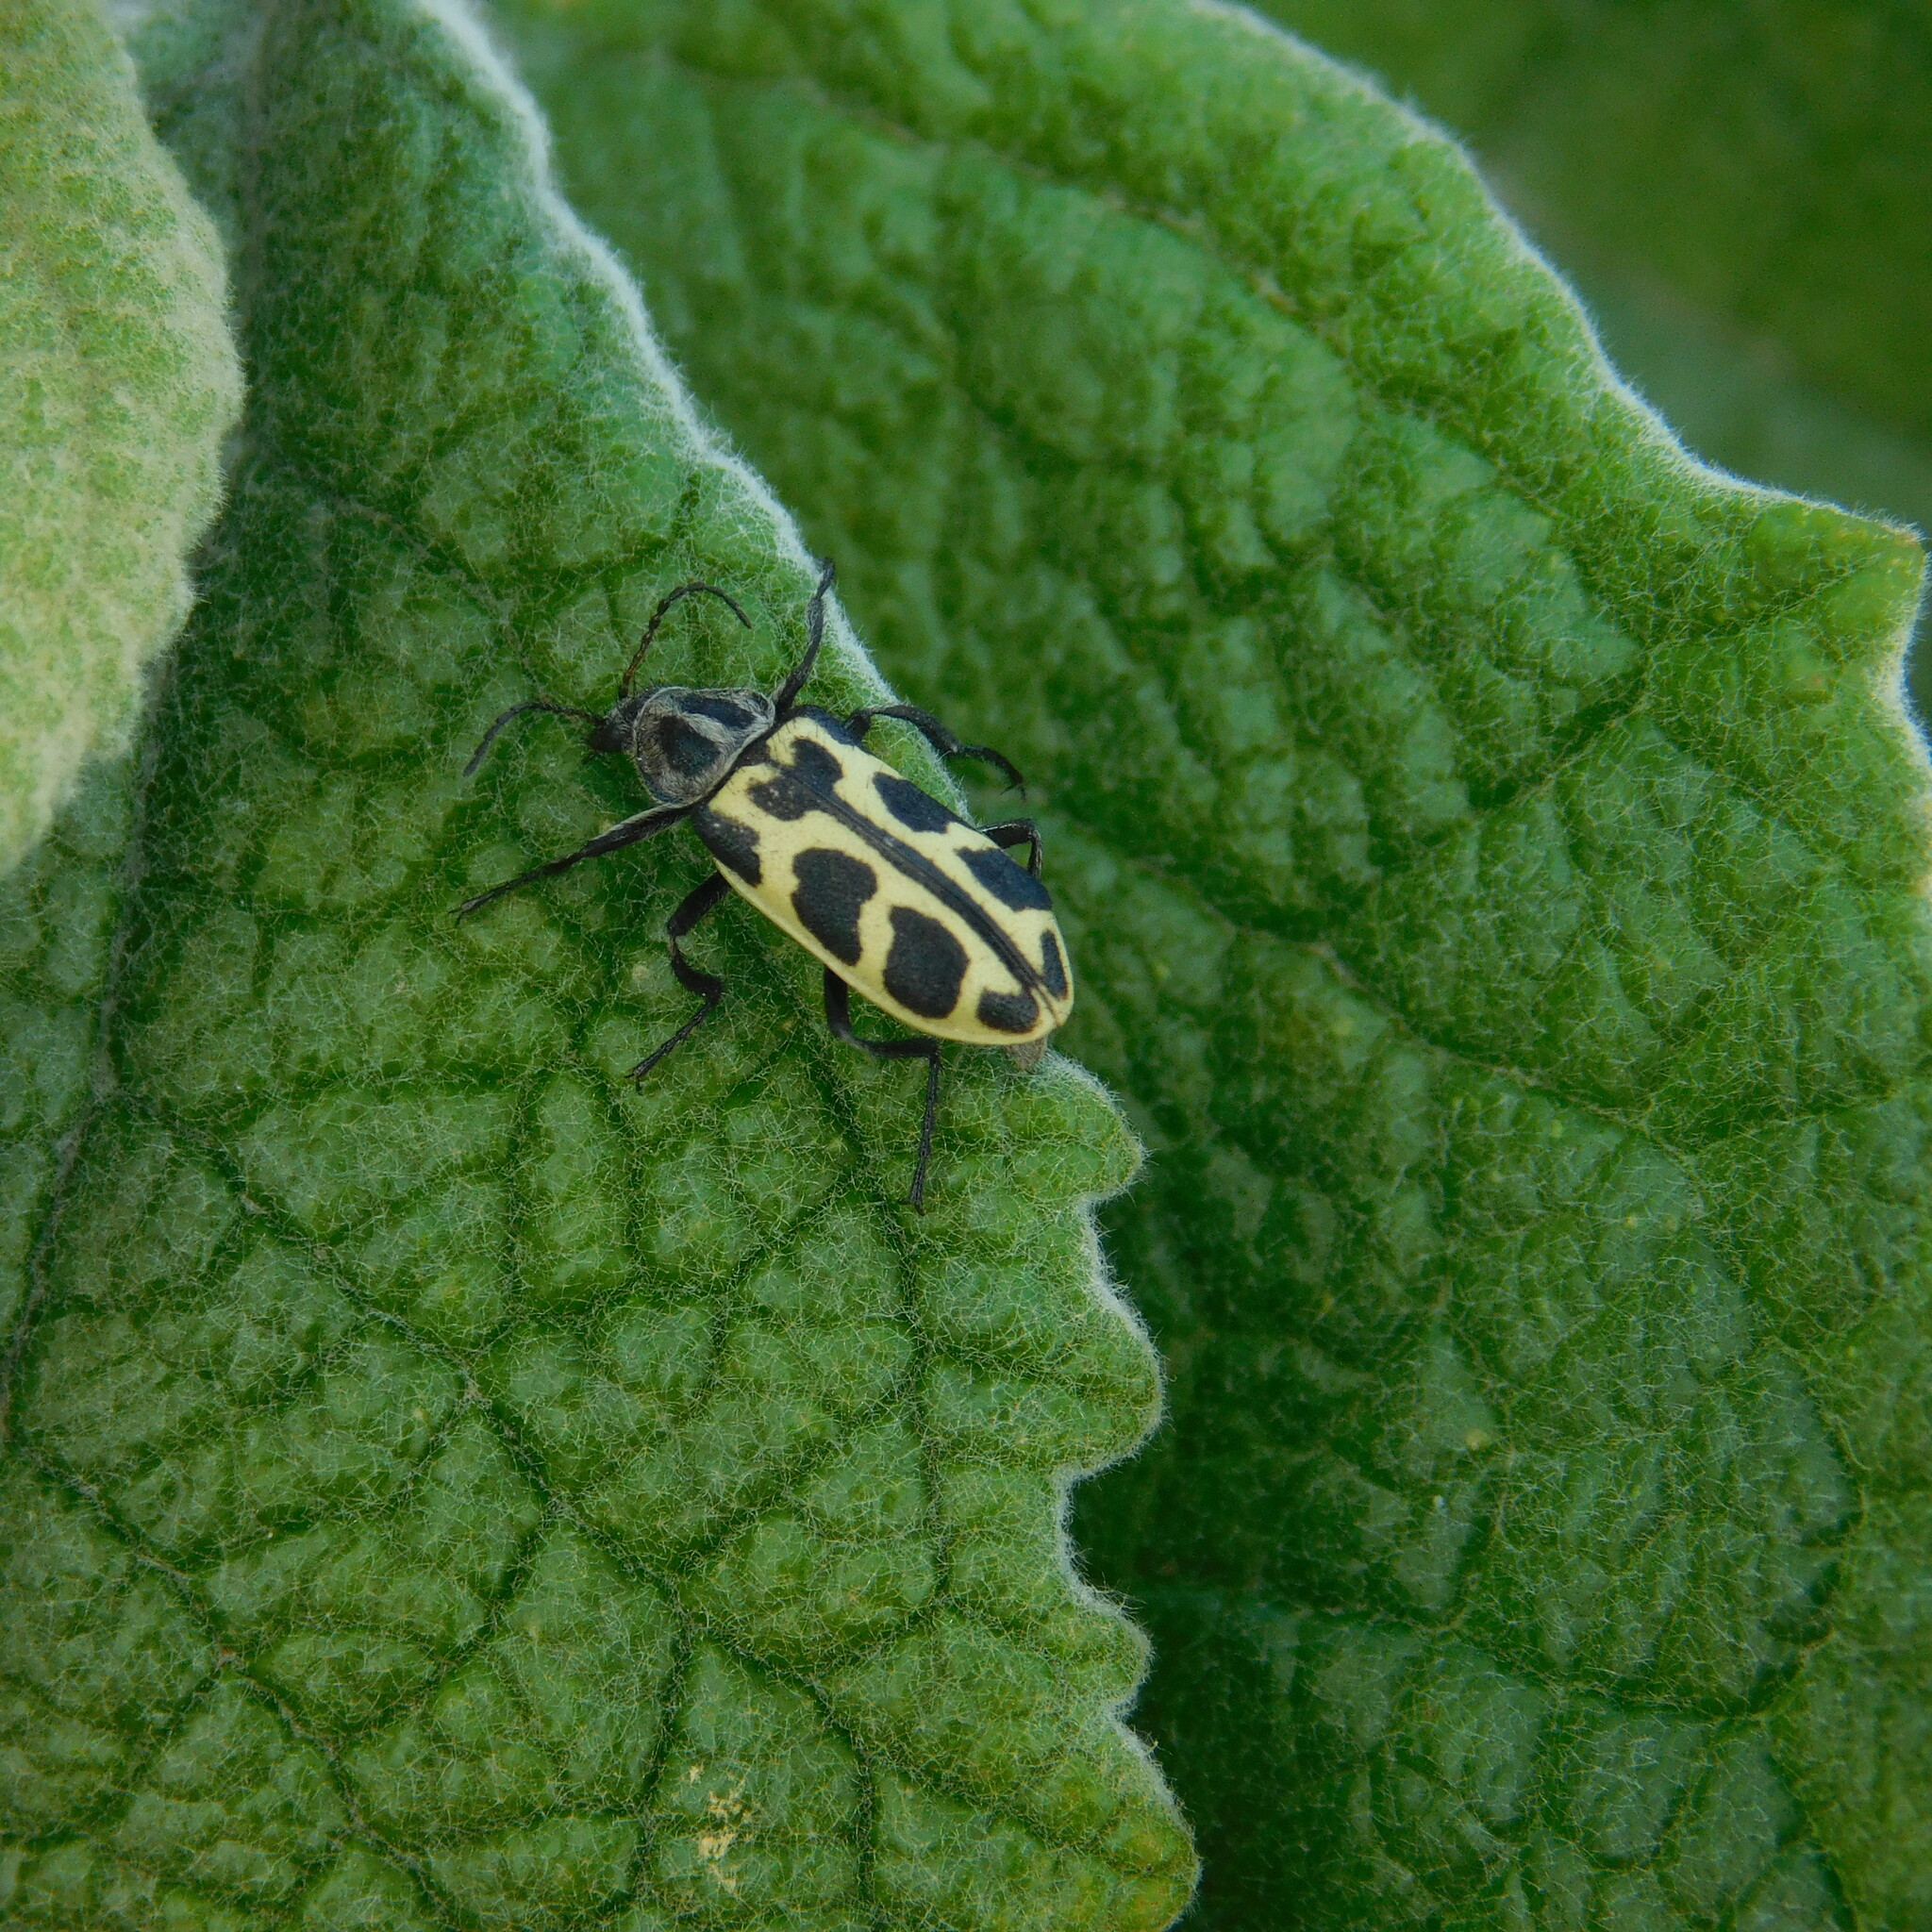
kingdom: Animalia
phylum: Arthropoda
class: Insecta
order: Coleoptera
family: Melyridae
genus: Astylus
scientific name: Astylus atromaculatus
